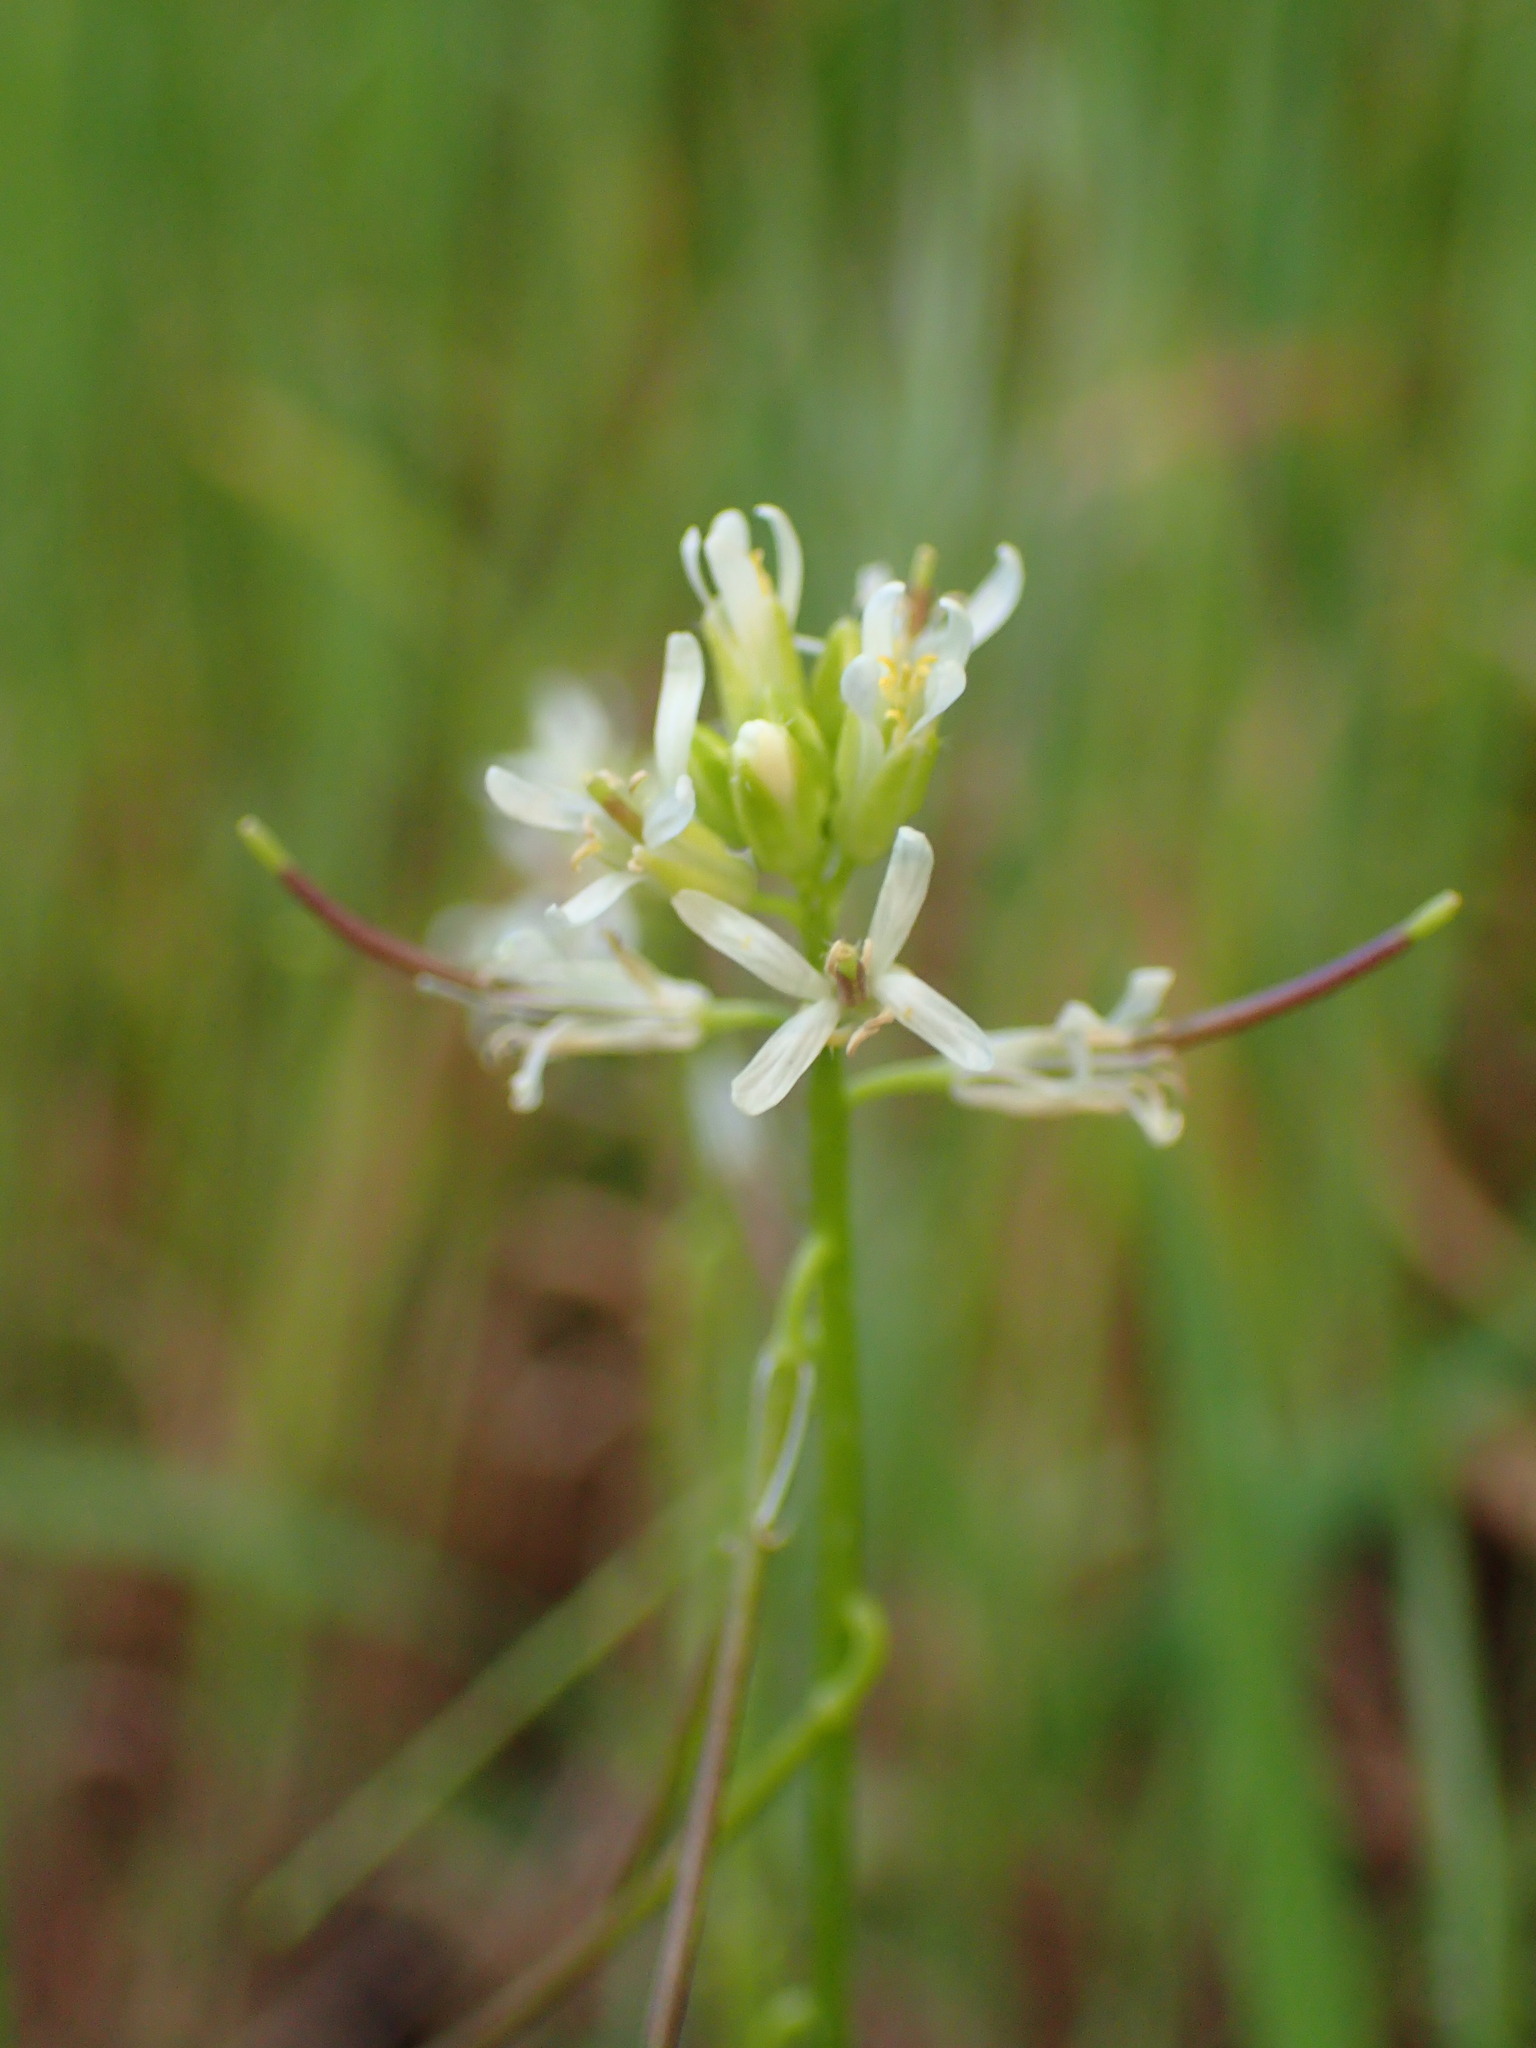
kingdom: Plantae
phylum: Tracheophyta
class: Magnoliopsida
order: Brassicales
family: Brassicaceae
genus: Streptanthus
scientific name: Streptanthus lasiophyllus
